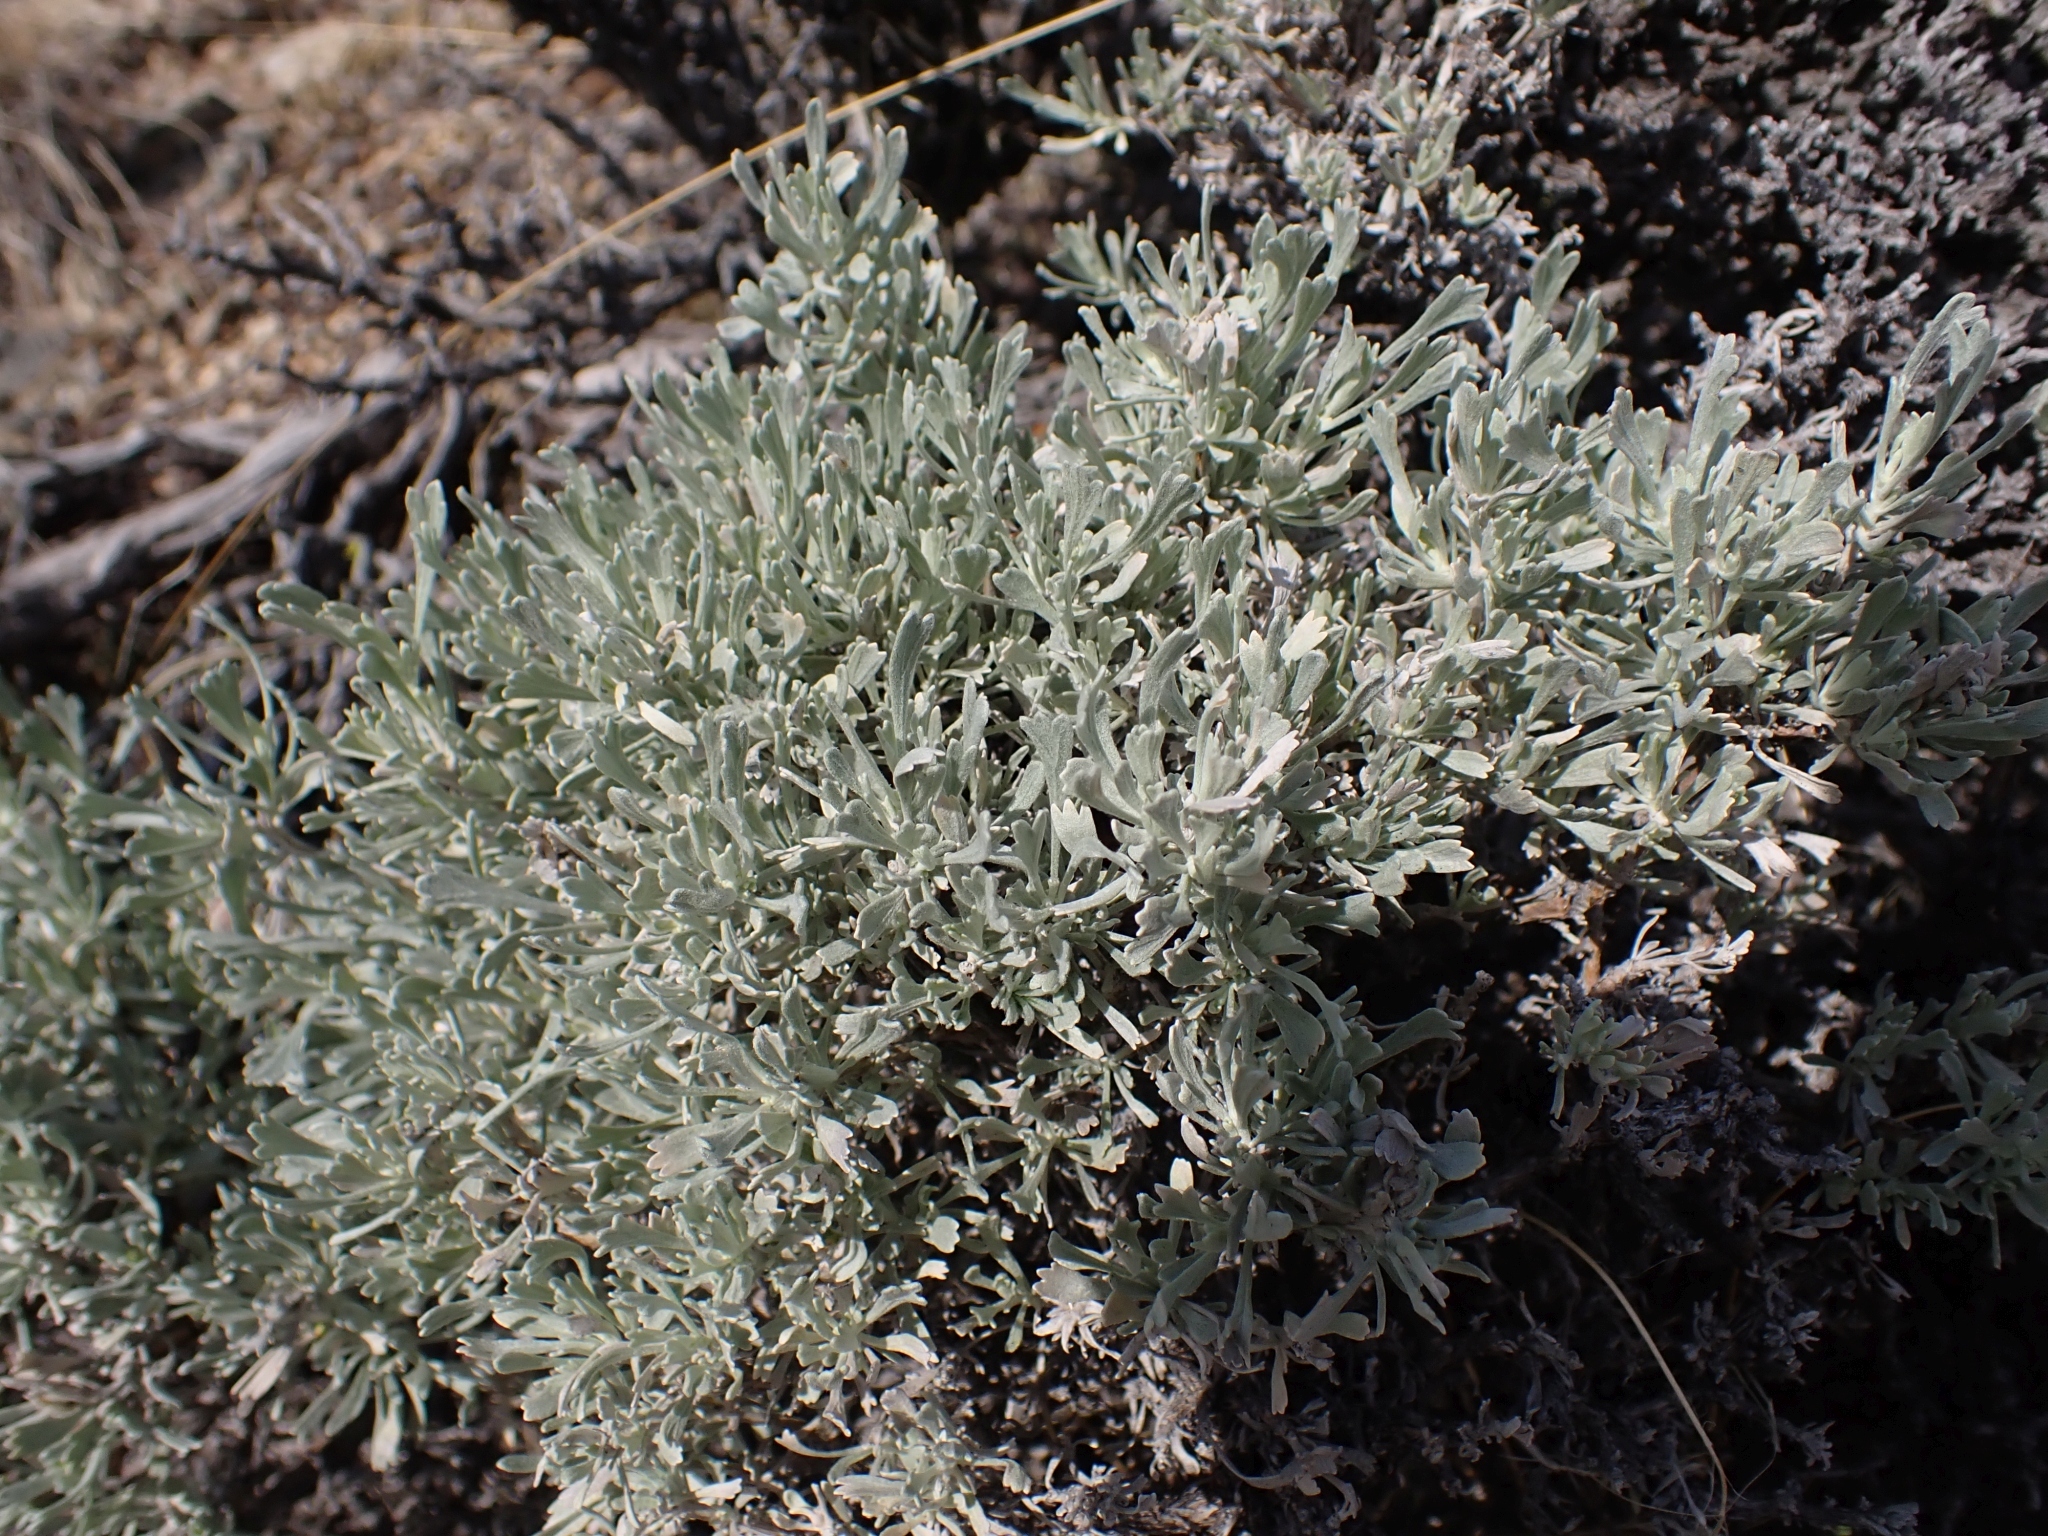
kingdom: Plantae
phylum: Tracheophyta
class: Magnoliopsida
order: Asterales
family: Asteraceae
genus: Artemisia
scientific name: Artemisia tridentata
